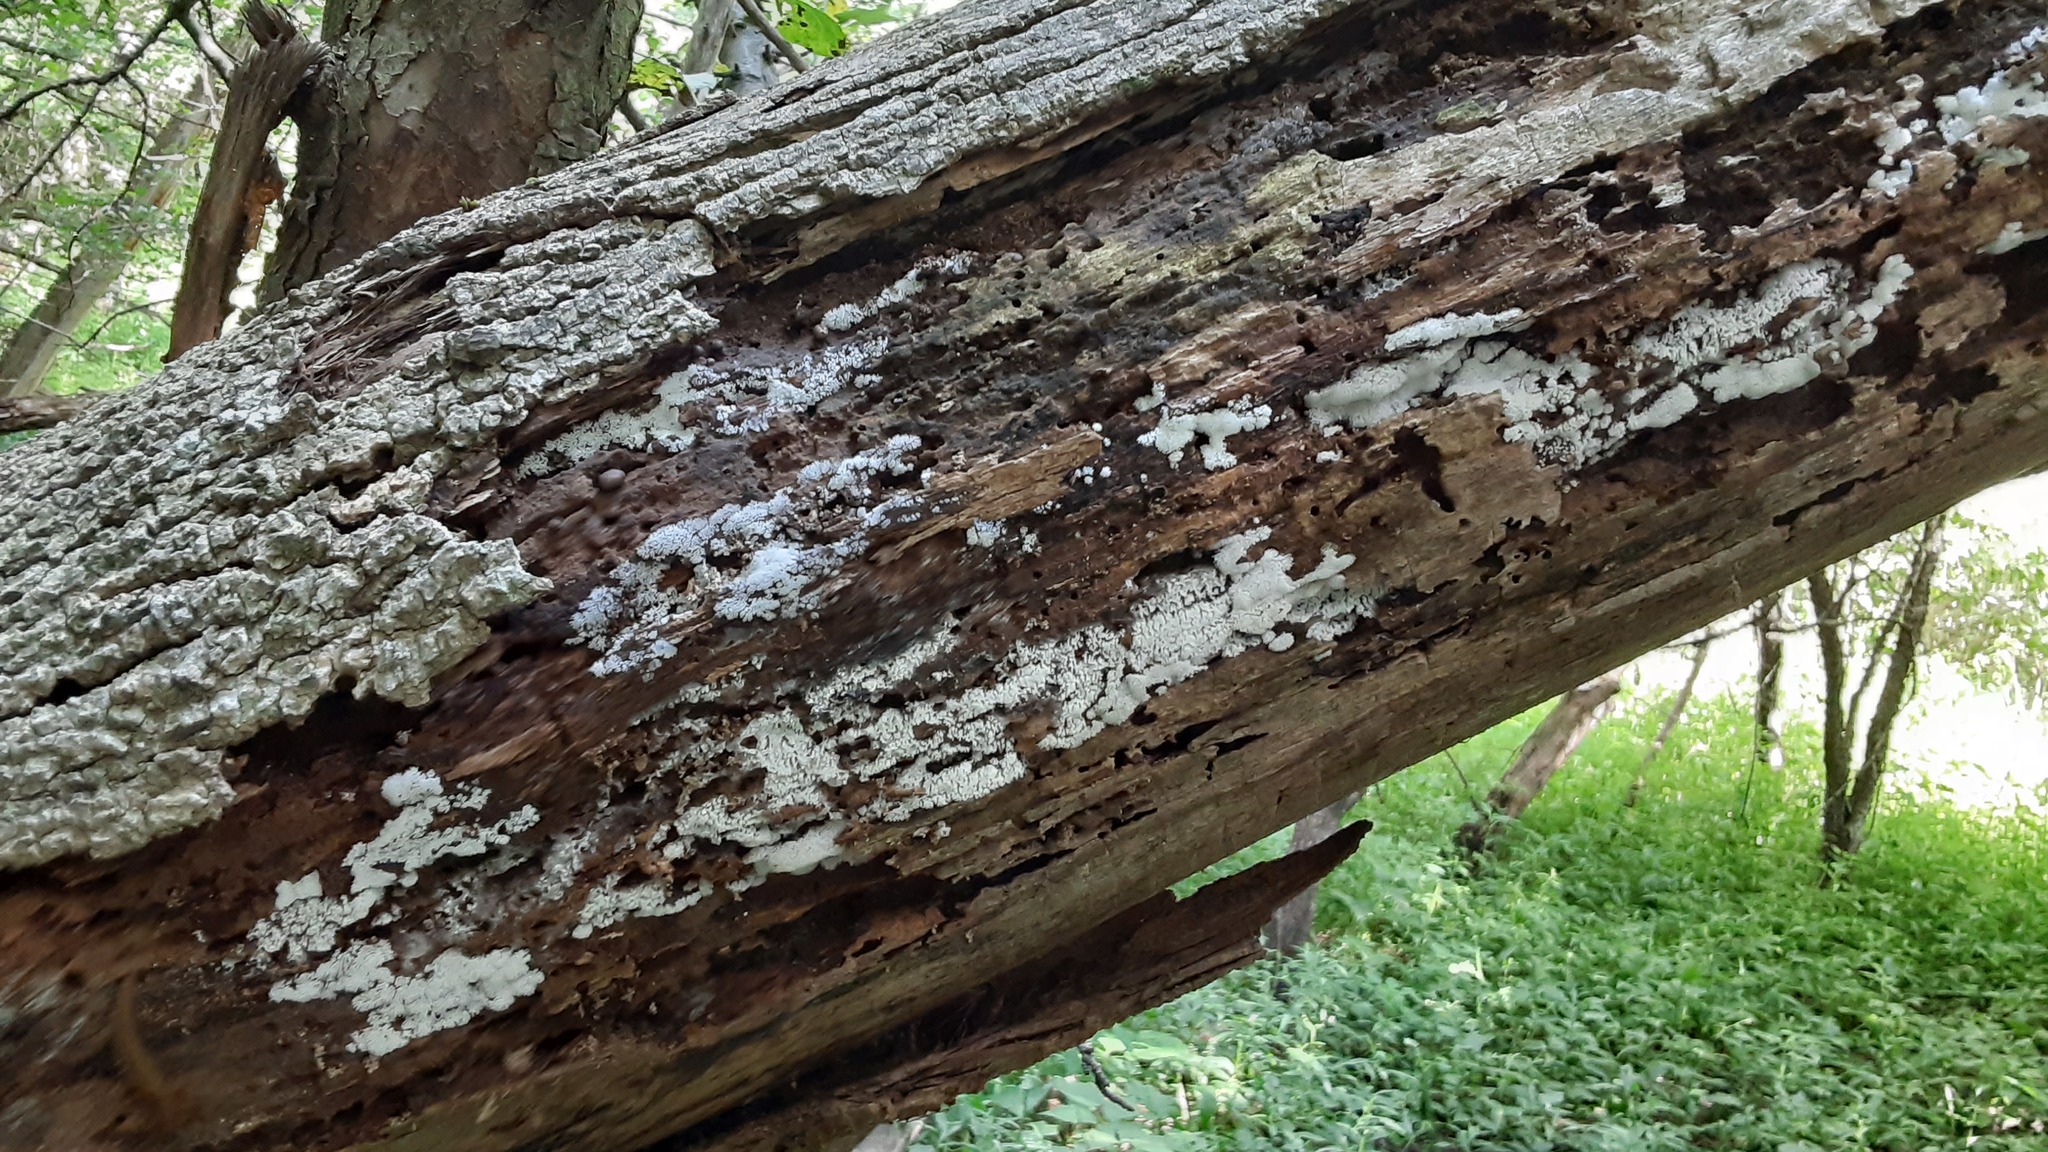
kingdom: Protozoa
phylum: Mycetozoa
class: Protosteliomycetes
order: Ceratiomyxales
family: Ceratiomyxaceae
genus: Ceratiomyxa
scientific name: Ceratiomyxa fruticulosa
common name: Honeycomb coral slime mold
